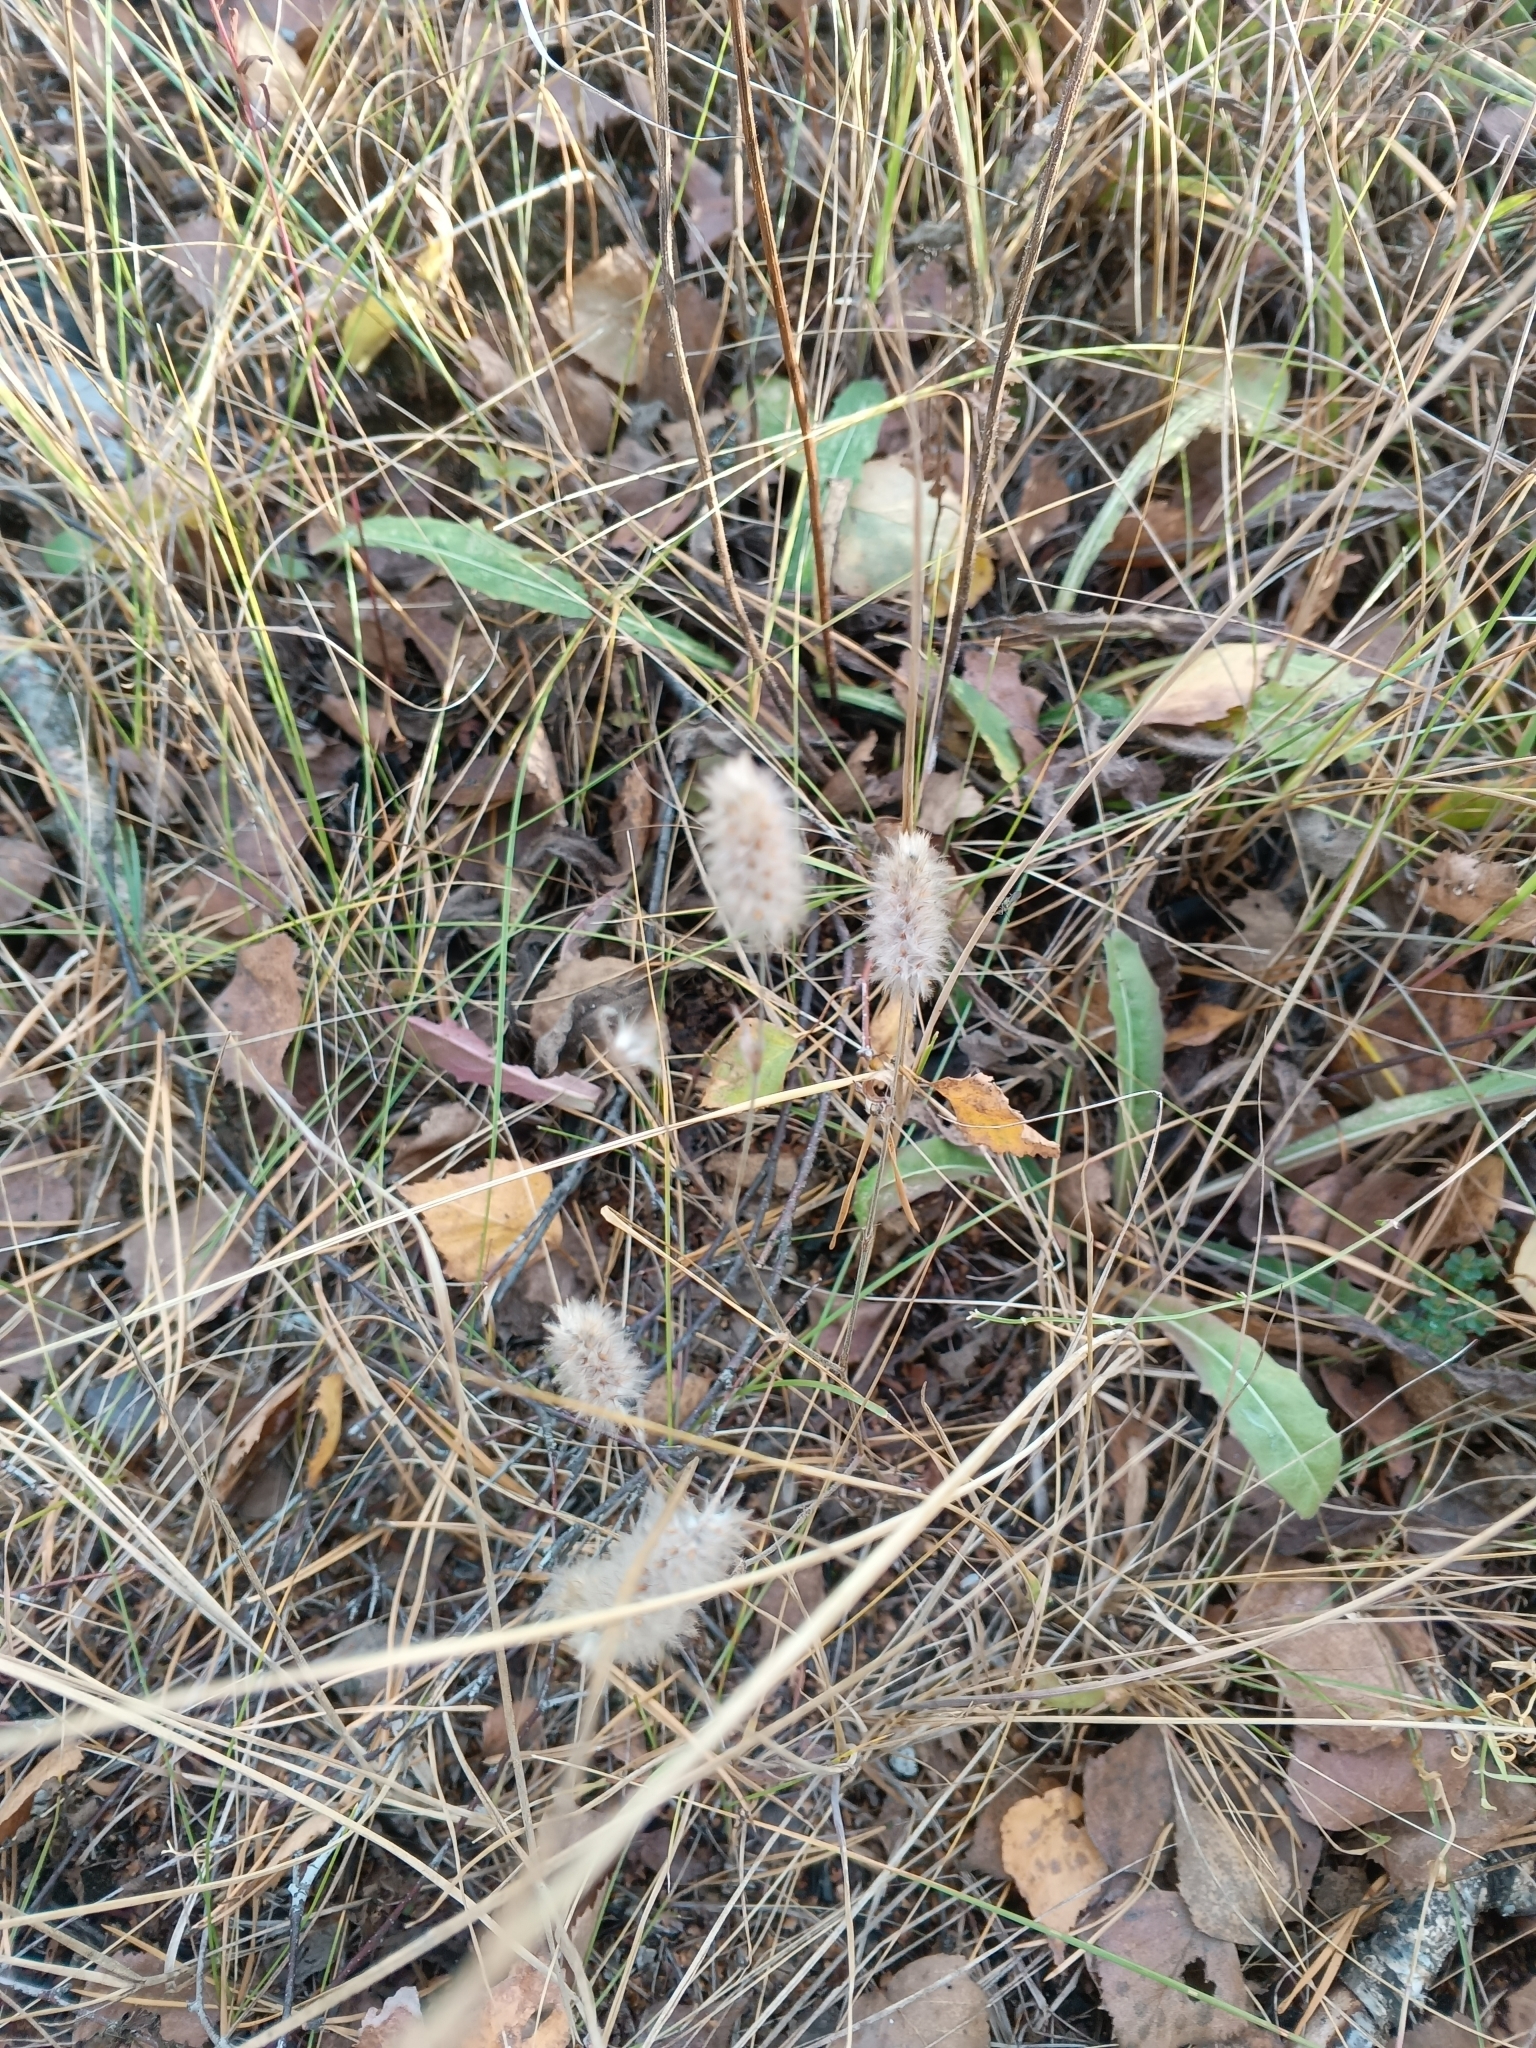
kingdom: Plantae
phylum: Tracheophyta
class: Magnoliopsida
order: Fabales
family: Fabaceae
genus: Trifolium
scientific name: Trifolium arvense
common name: Hare's-foot clover
